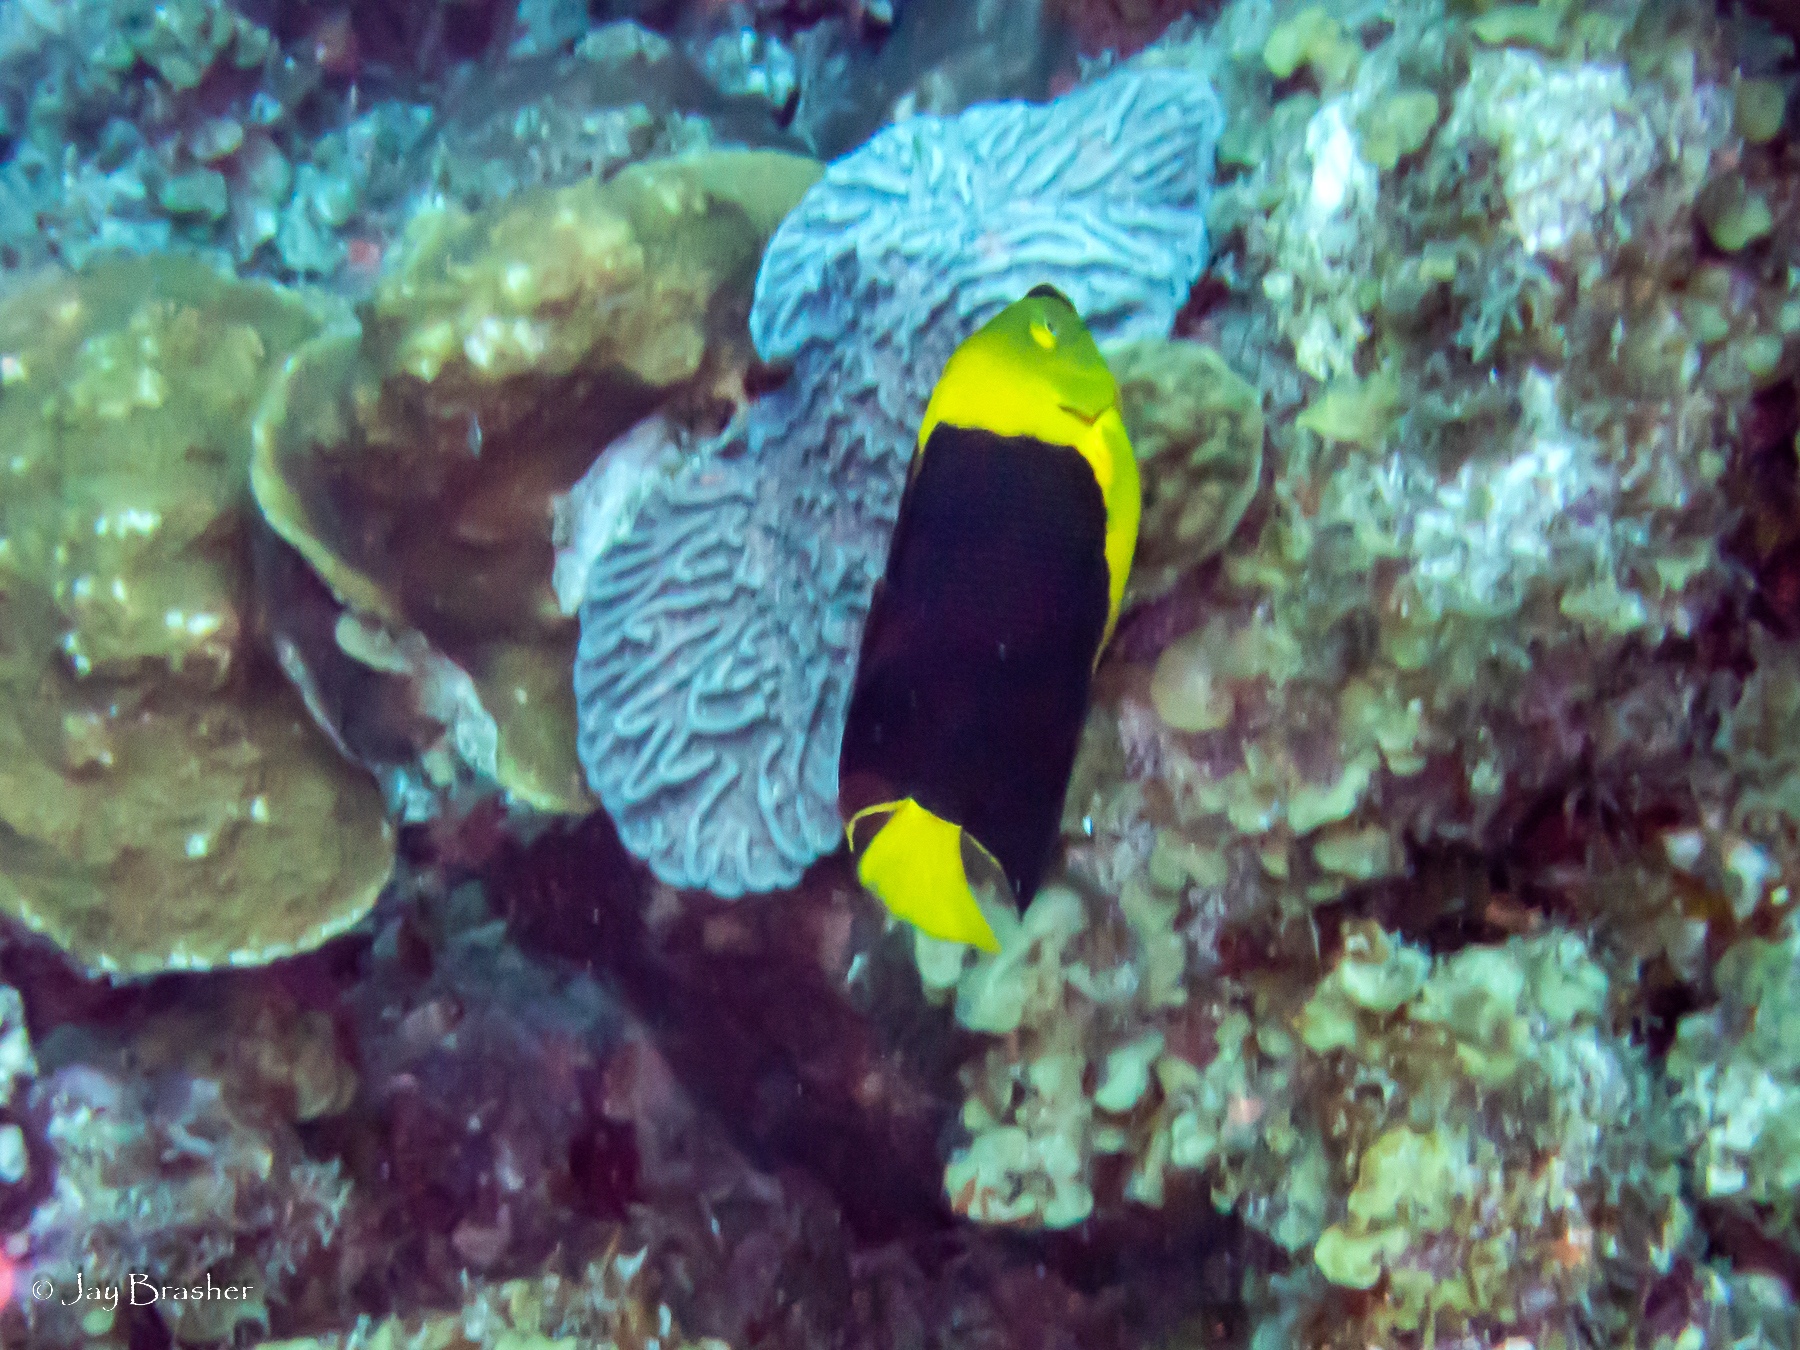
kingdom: Animalia
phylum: Chordata
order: Perciformes
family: Pomacanthidae
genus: Holacanthus
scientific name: Holacanthus tricolor
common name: Rock beauty
